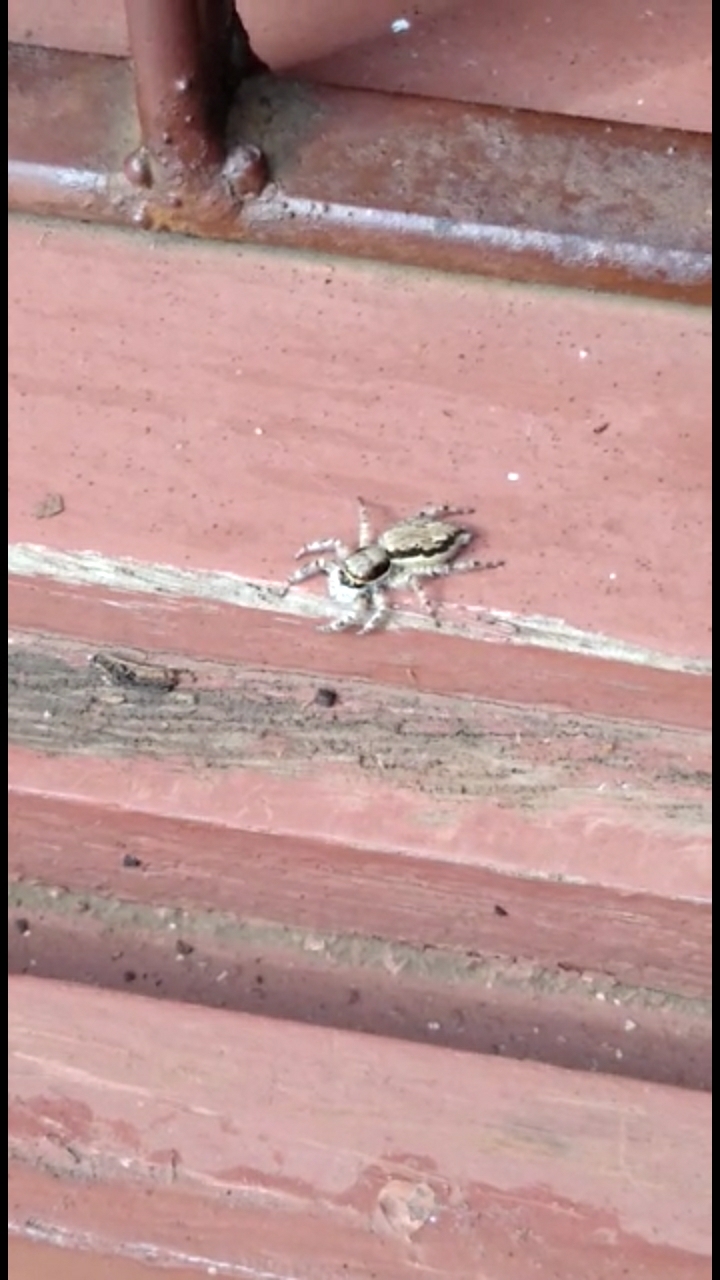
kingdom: Animalia
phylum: Arthropoda
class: Arachnida
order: Araneae
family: Salticidae
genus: Menemerus
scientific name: Menemerus bivittatus
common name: Gray wall jumper
